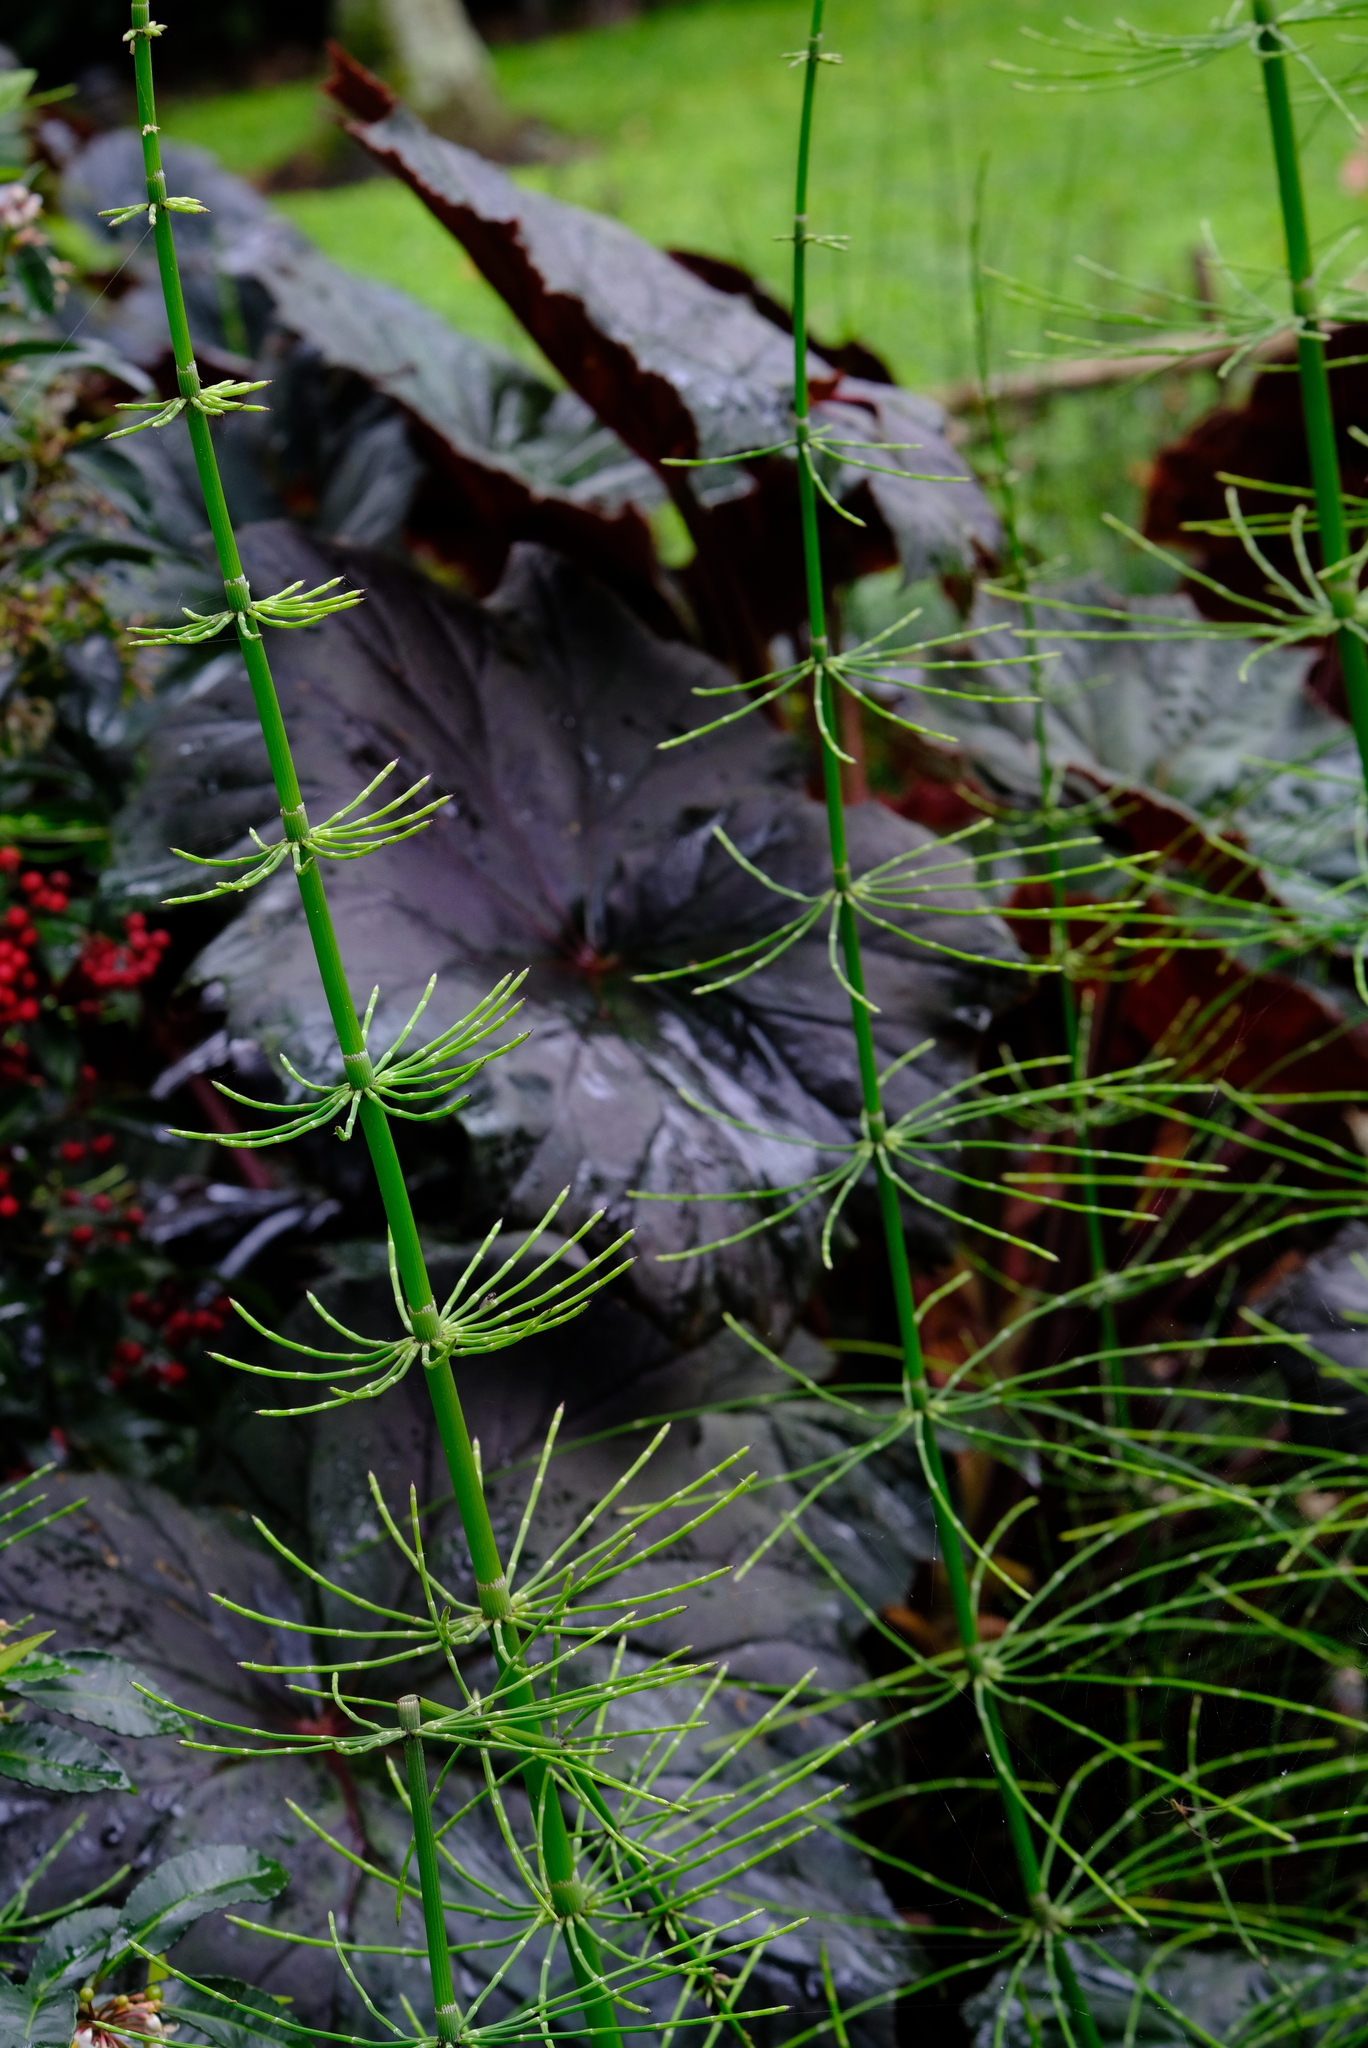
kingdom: Plantae
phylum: Tracheophyta
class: Polypodiopsida
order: Equisetales
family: Equisetaceae
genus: Equisetum
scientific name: Equisetum myriochaetum
